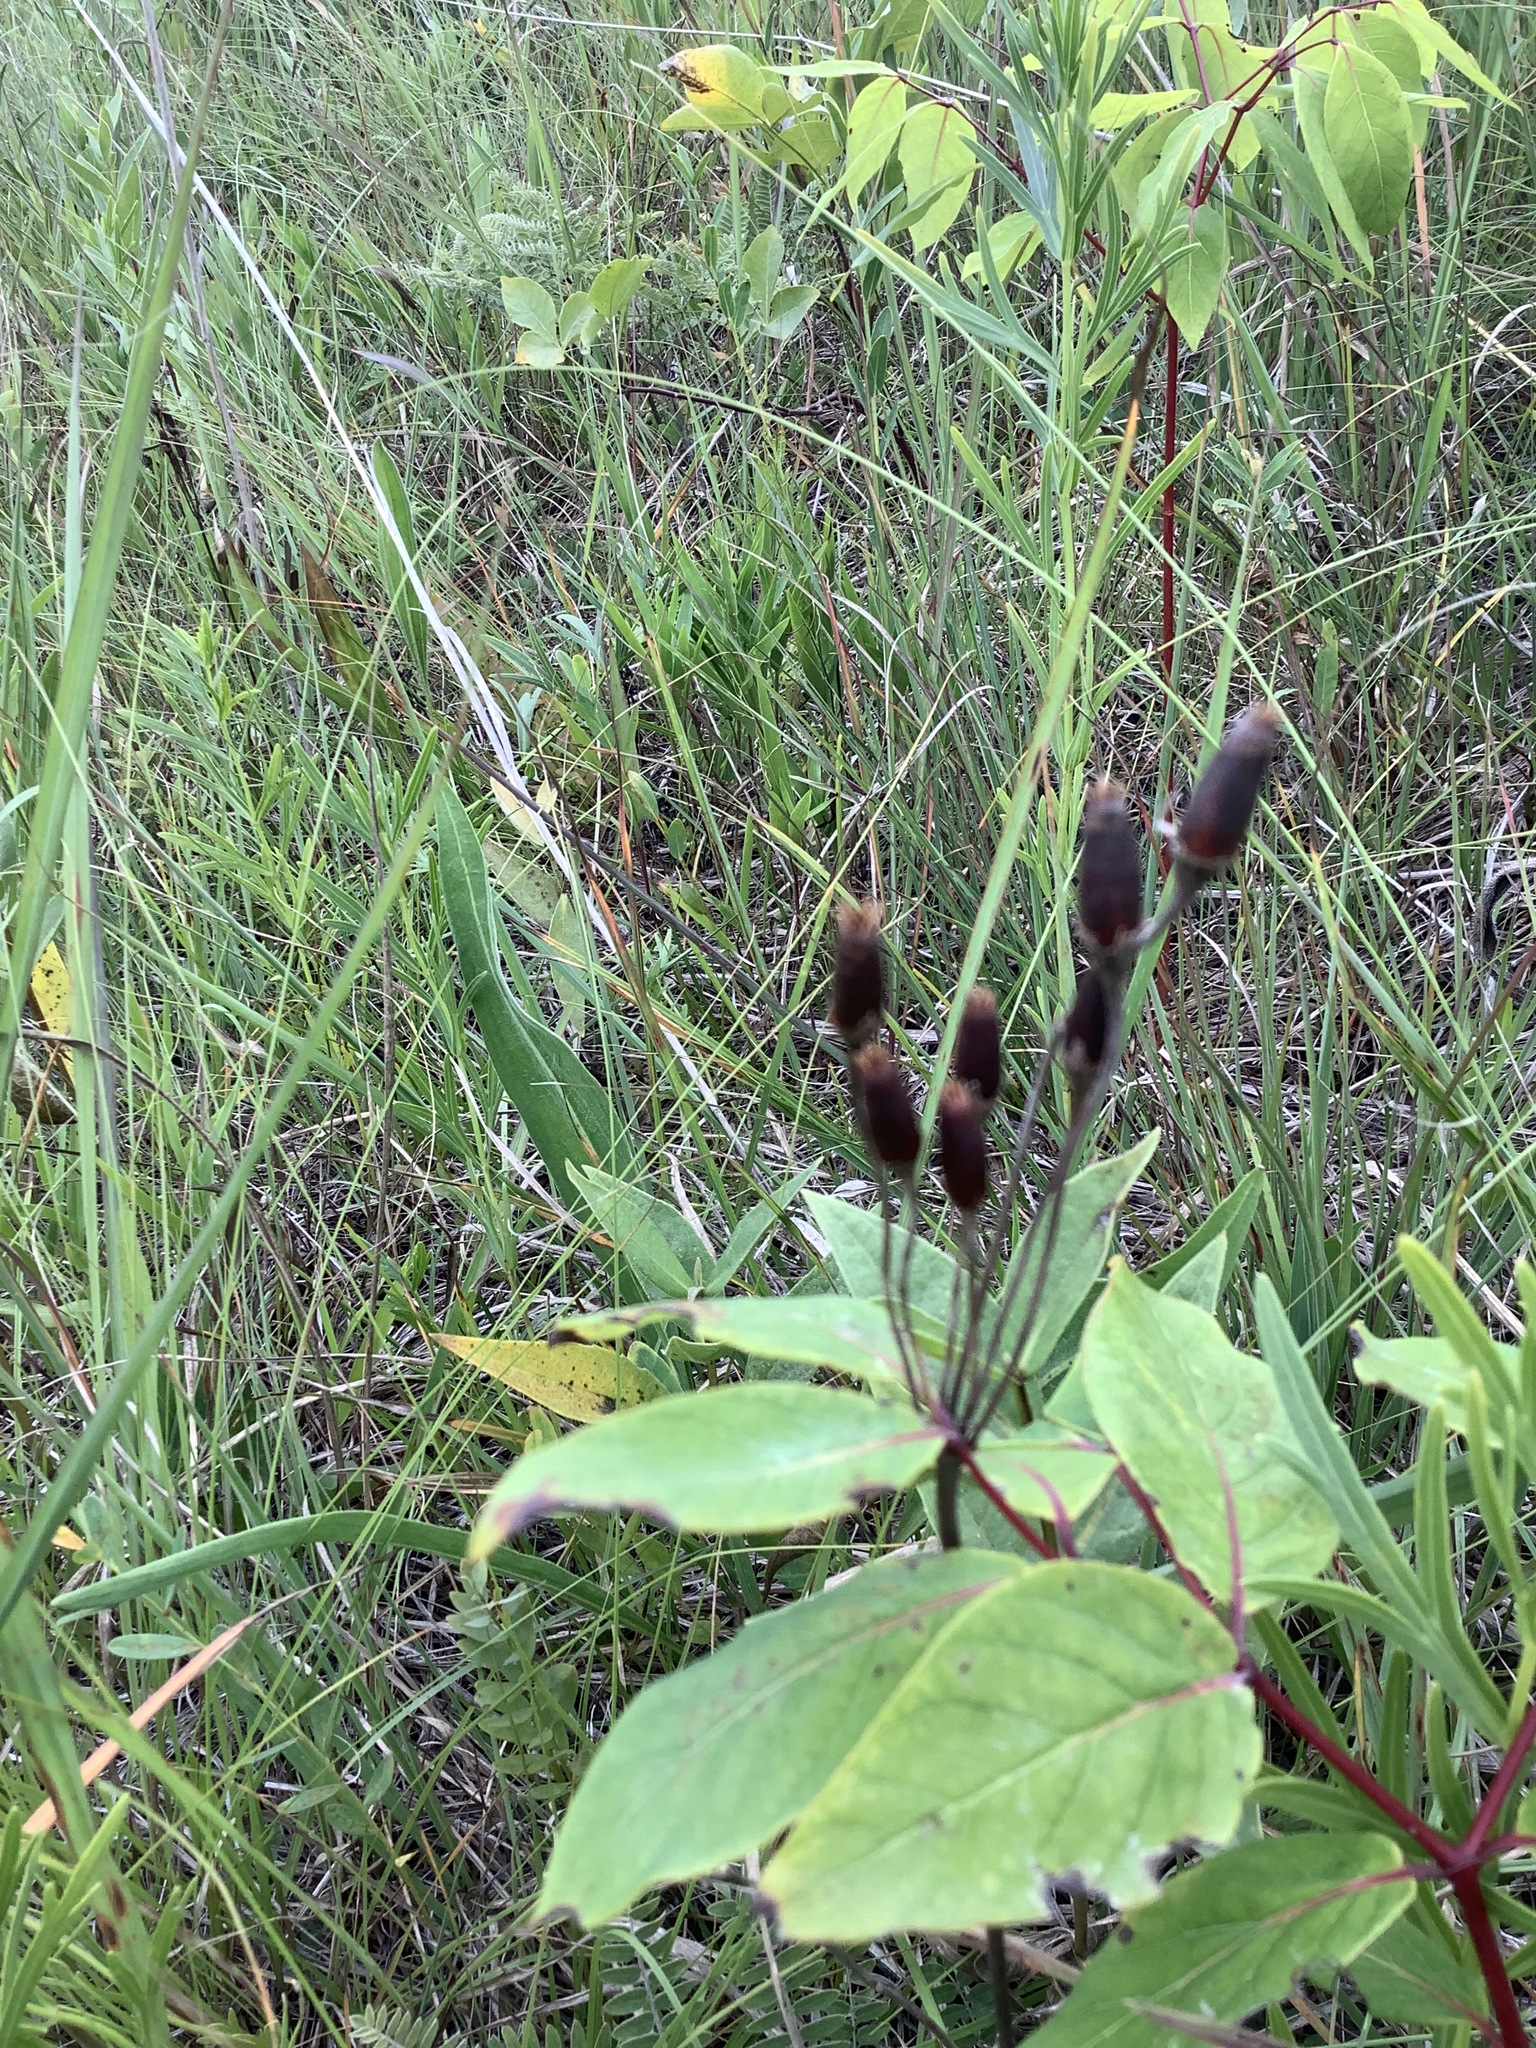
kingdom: Plantae
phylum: Tracheophyta
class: Magnoliopsida
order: Ericales
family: Primulaceae
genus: Dodecatheon
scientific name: Dodecatheon meadia
